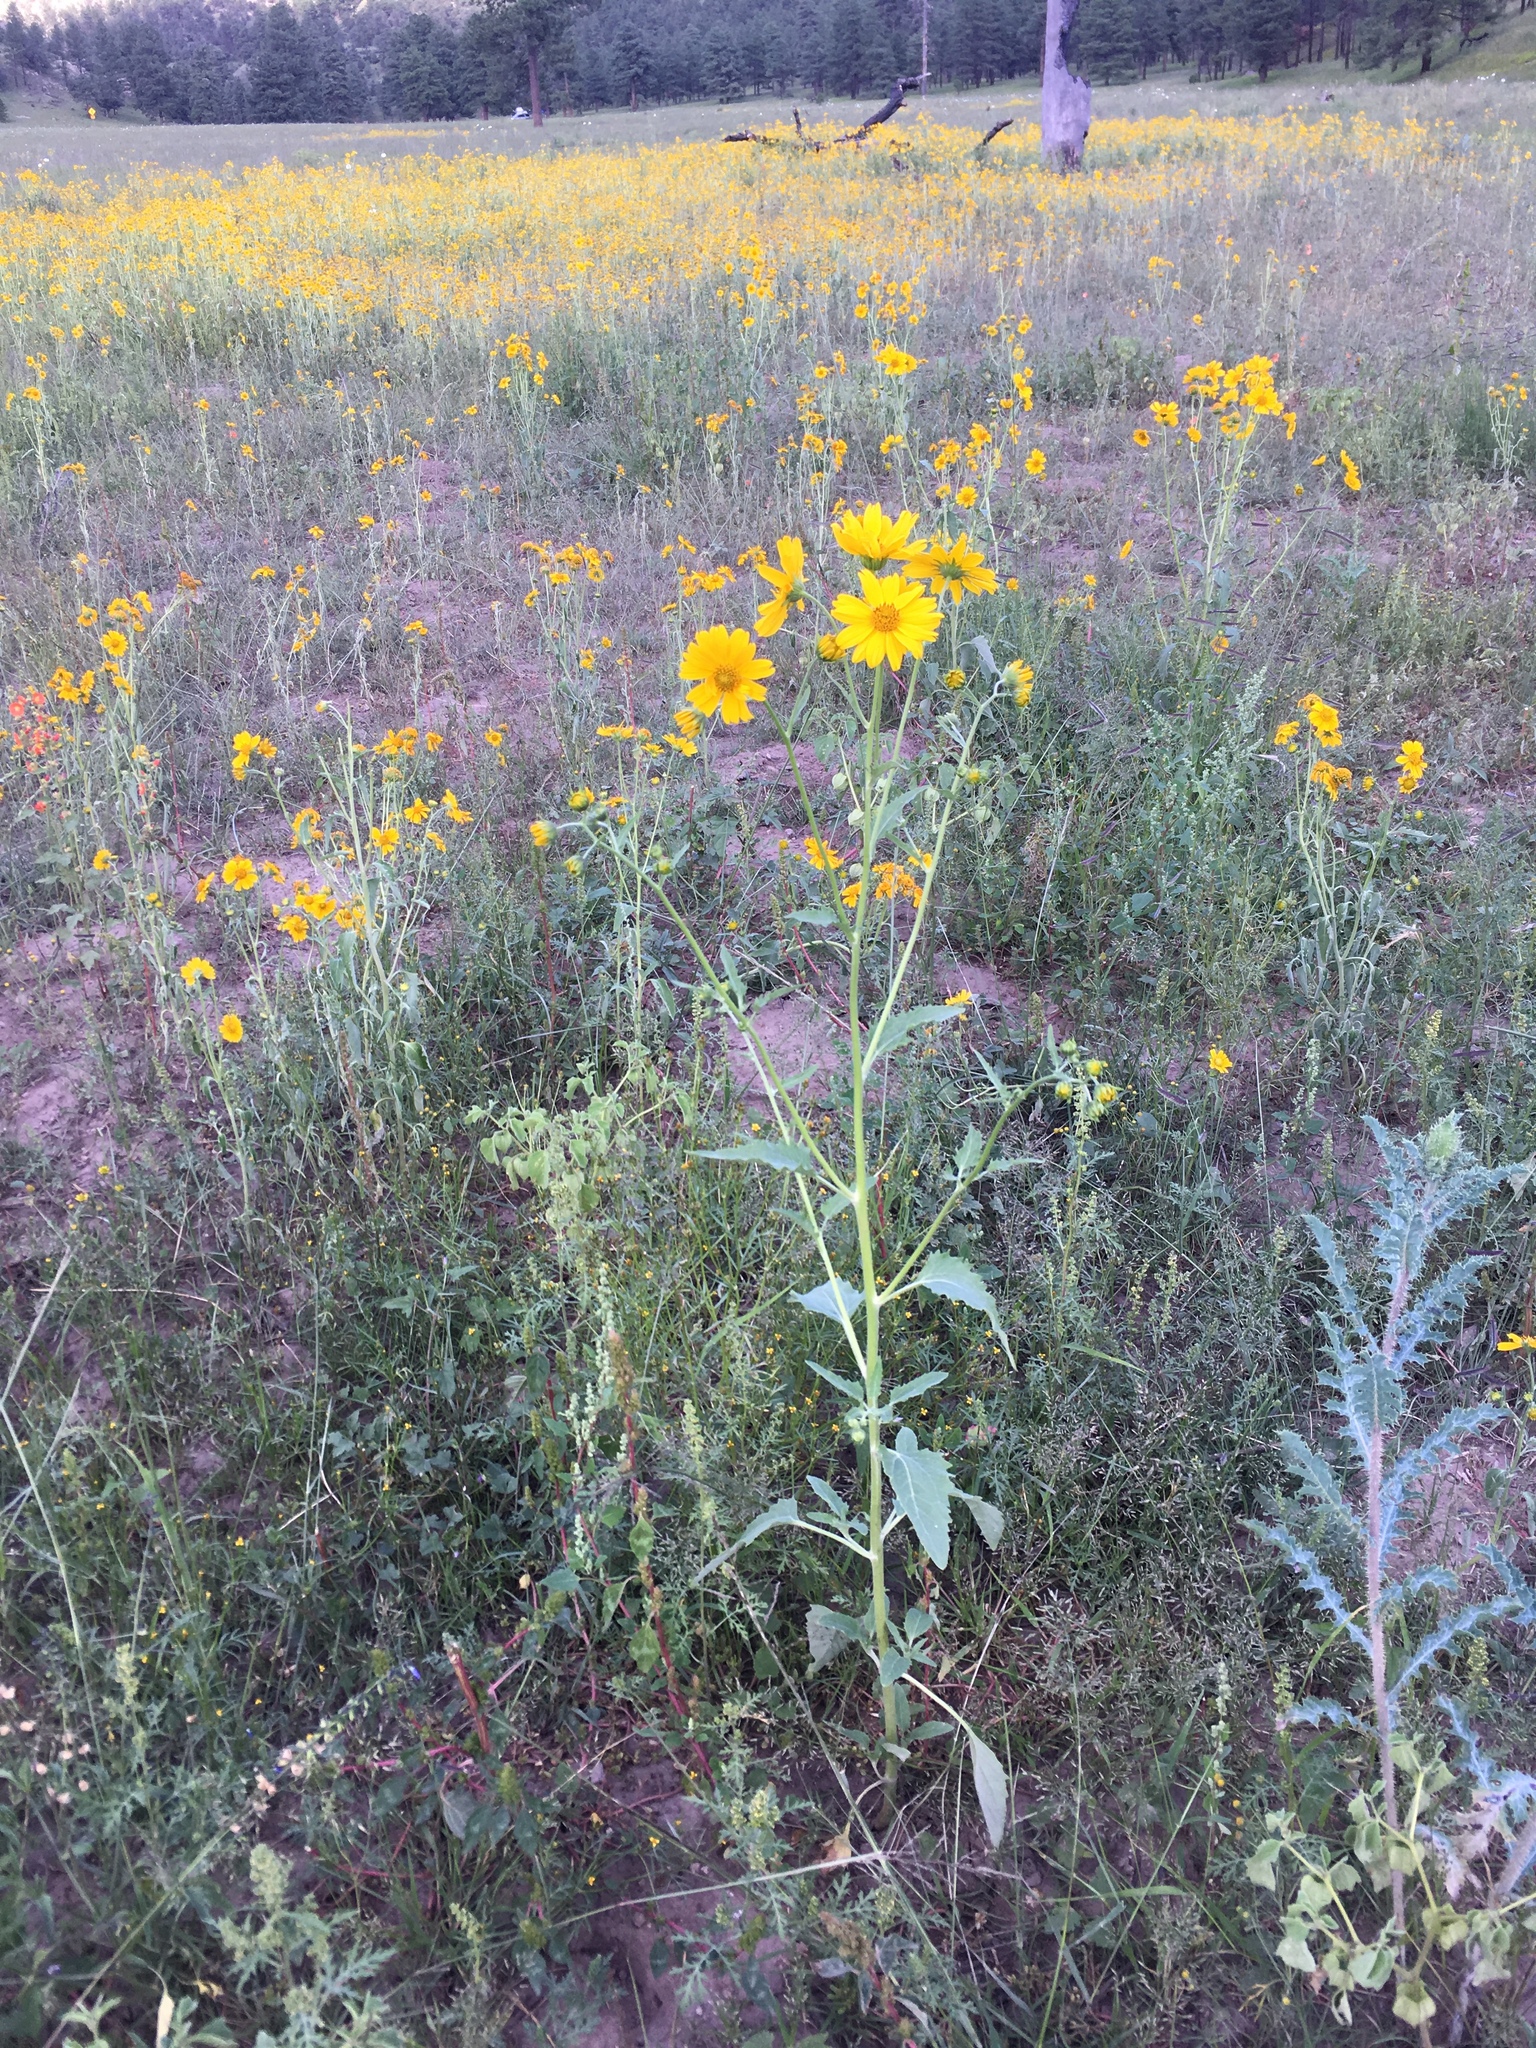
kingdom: Plantae
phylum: Tracheophyta
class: Magnoliopsida
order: Asterales
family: Asteraceae
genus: Verbesina
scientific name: Verbesina encelioides
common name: Golden crownbeard
